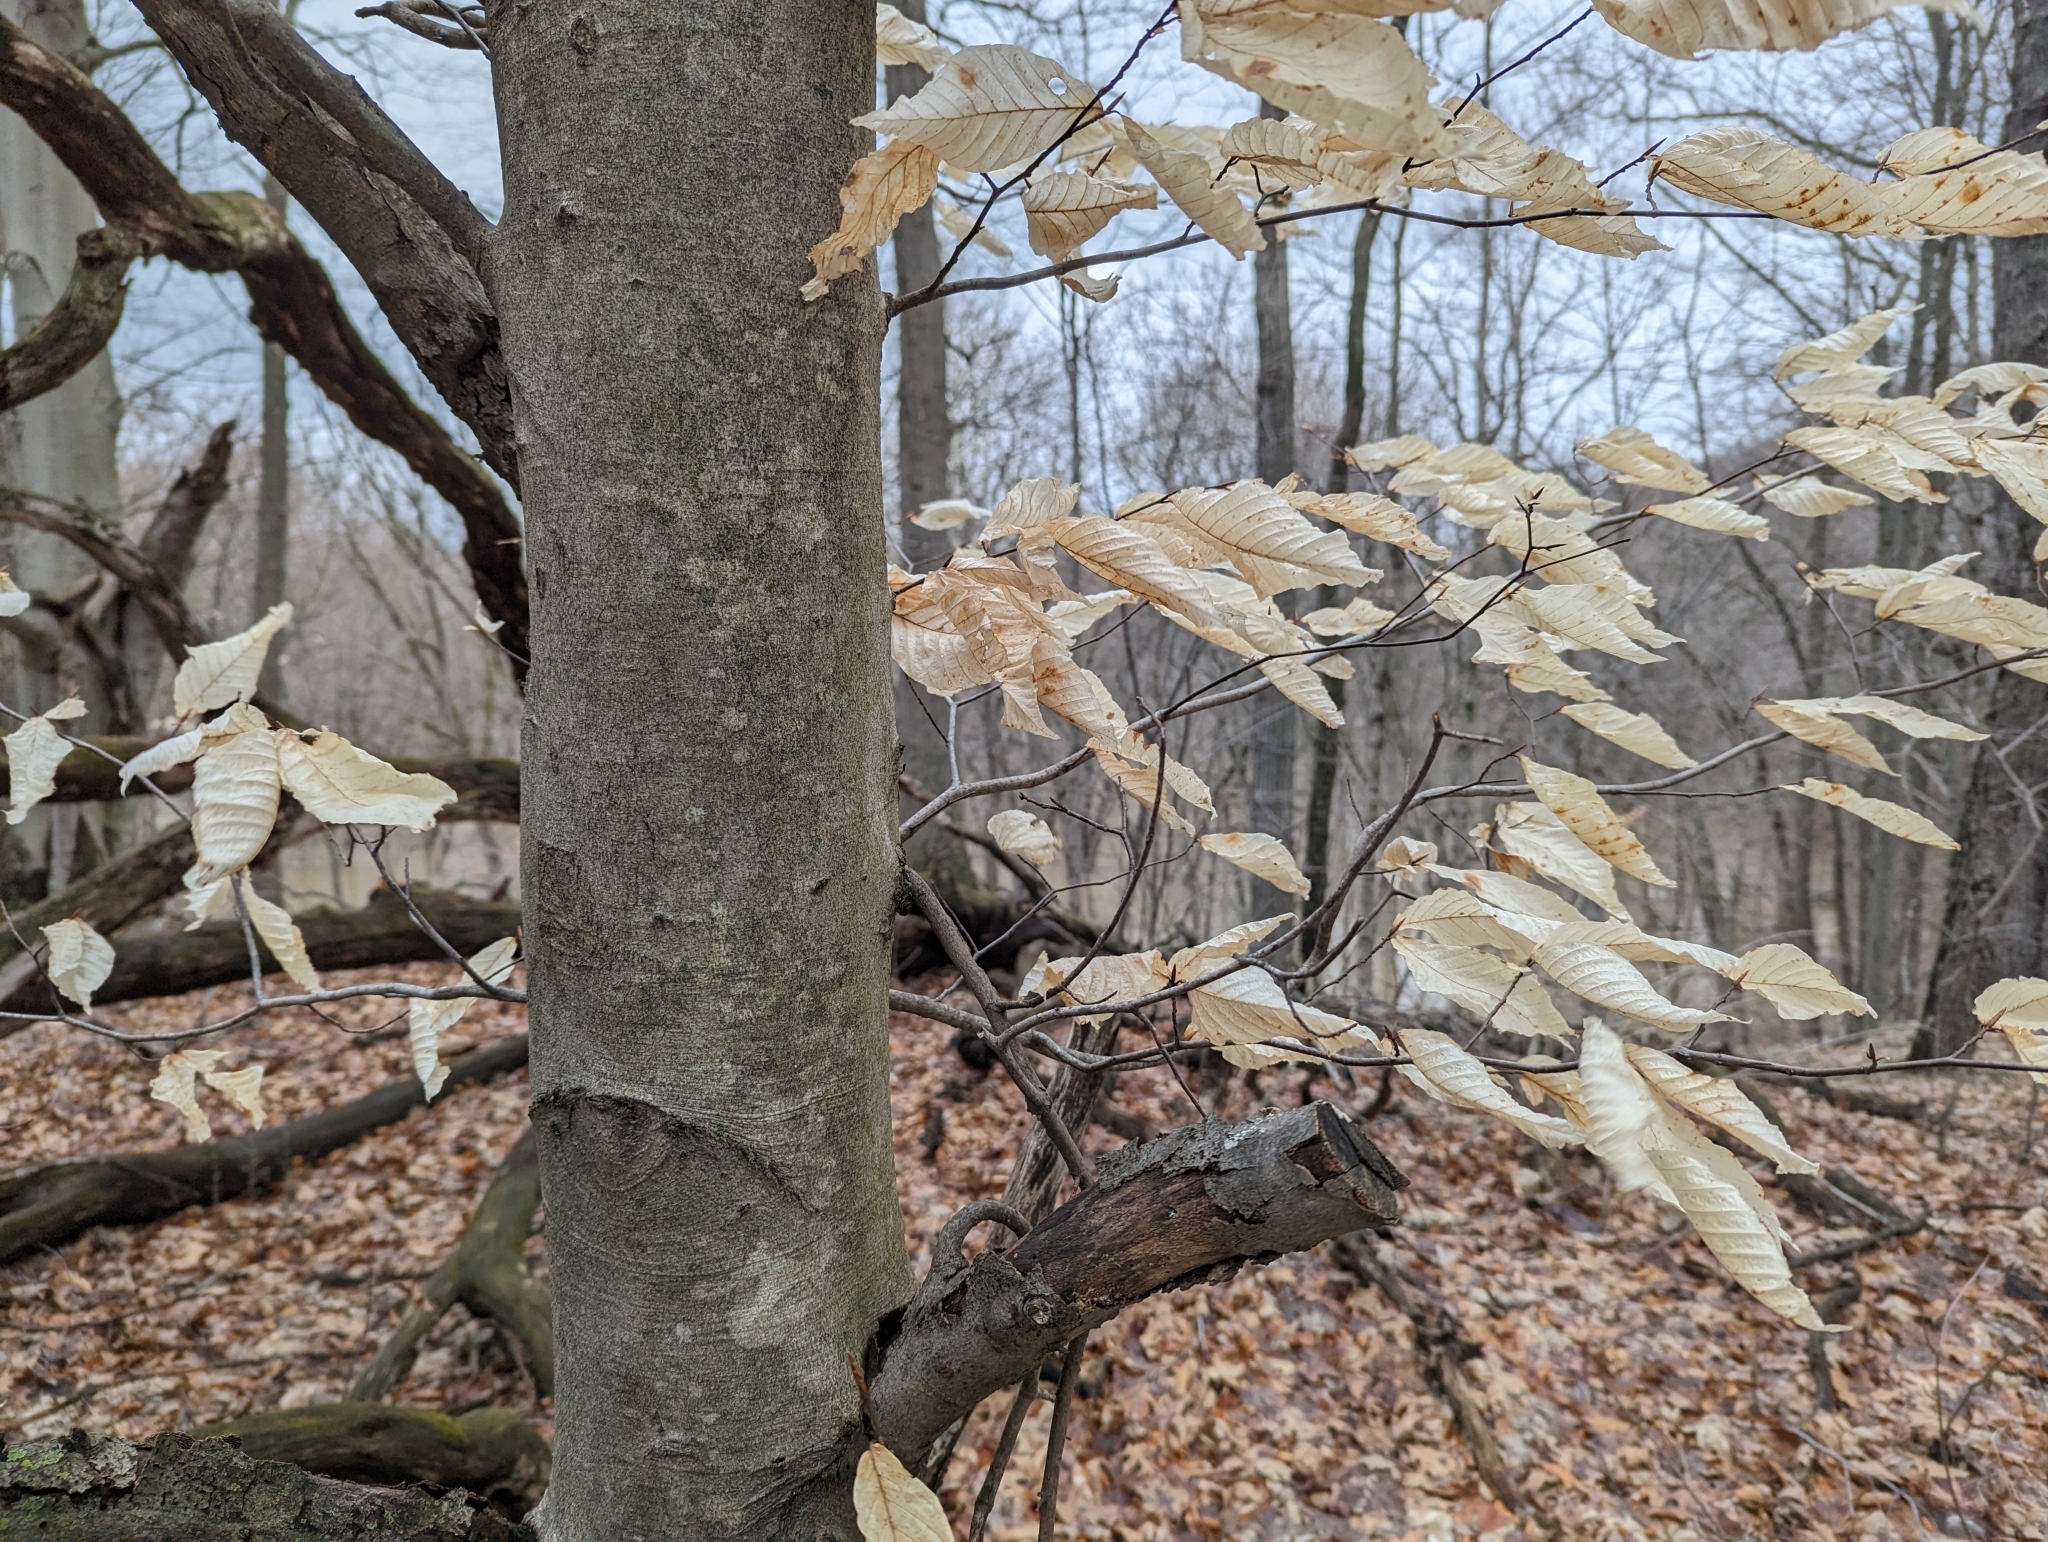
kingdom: Plantae
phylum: Tracheophyta
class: Magnoliopsida
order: Fagales
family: Fagaceae
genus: Fagus
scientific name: Fagus grandifolia
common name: American beech
